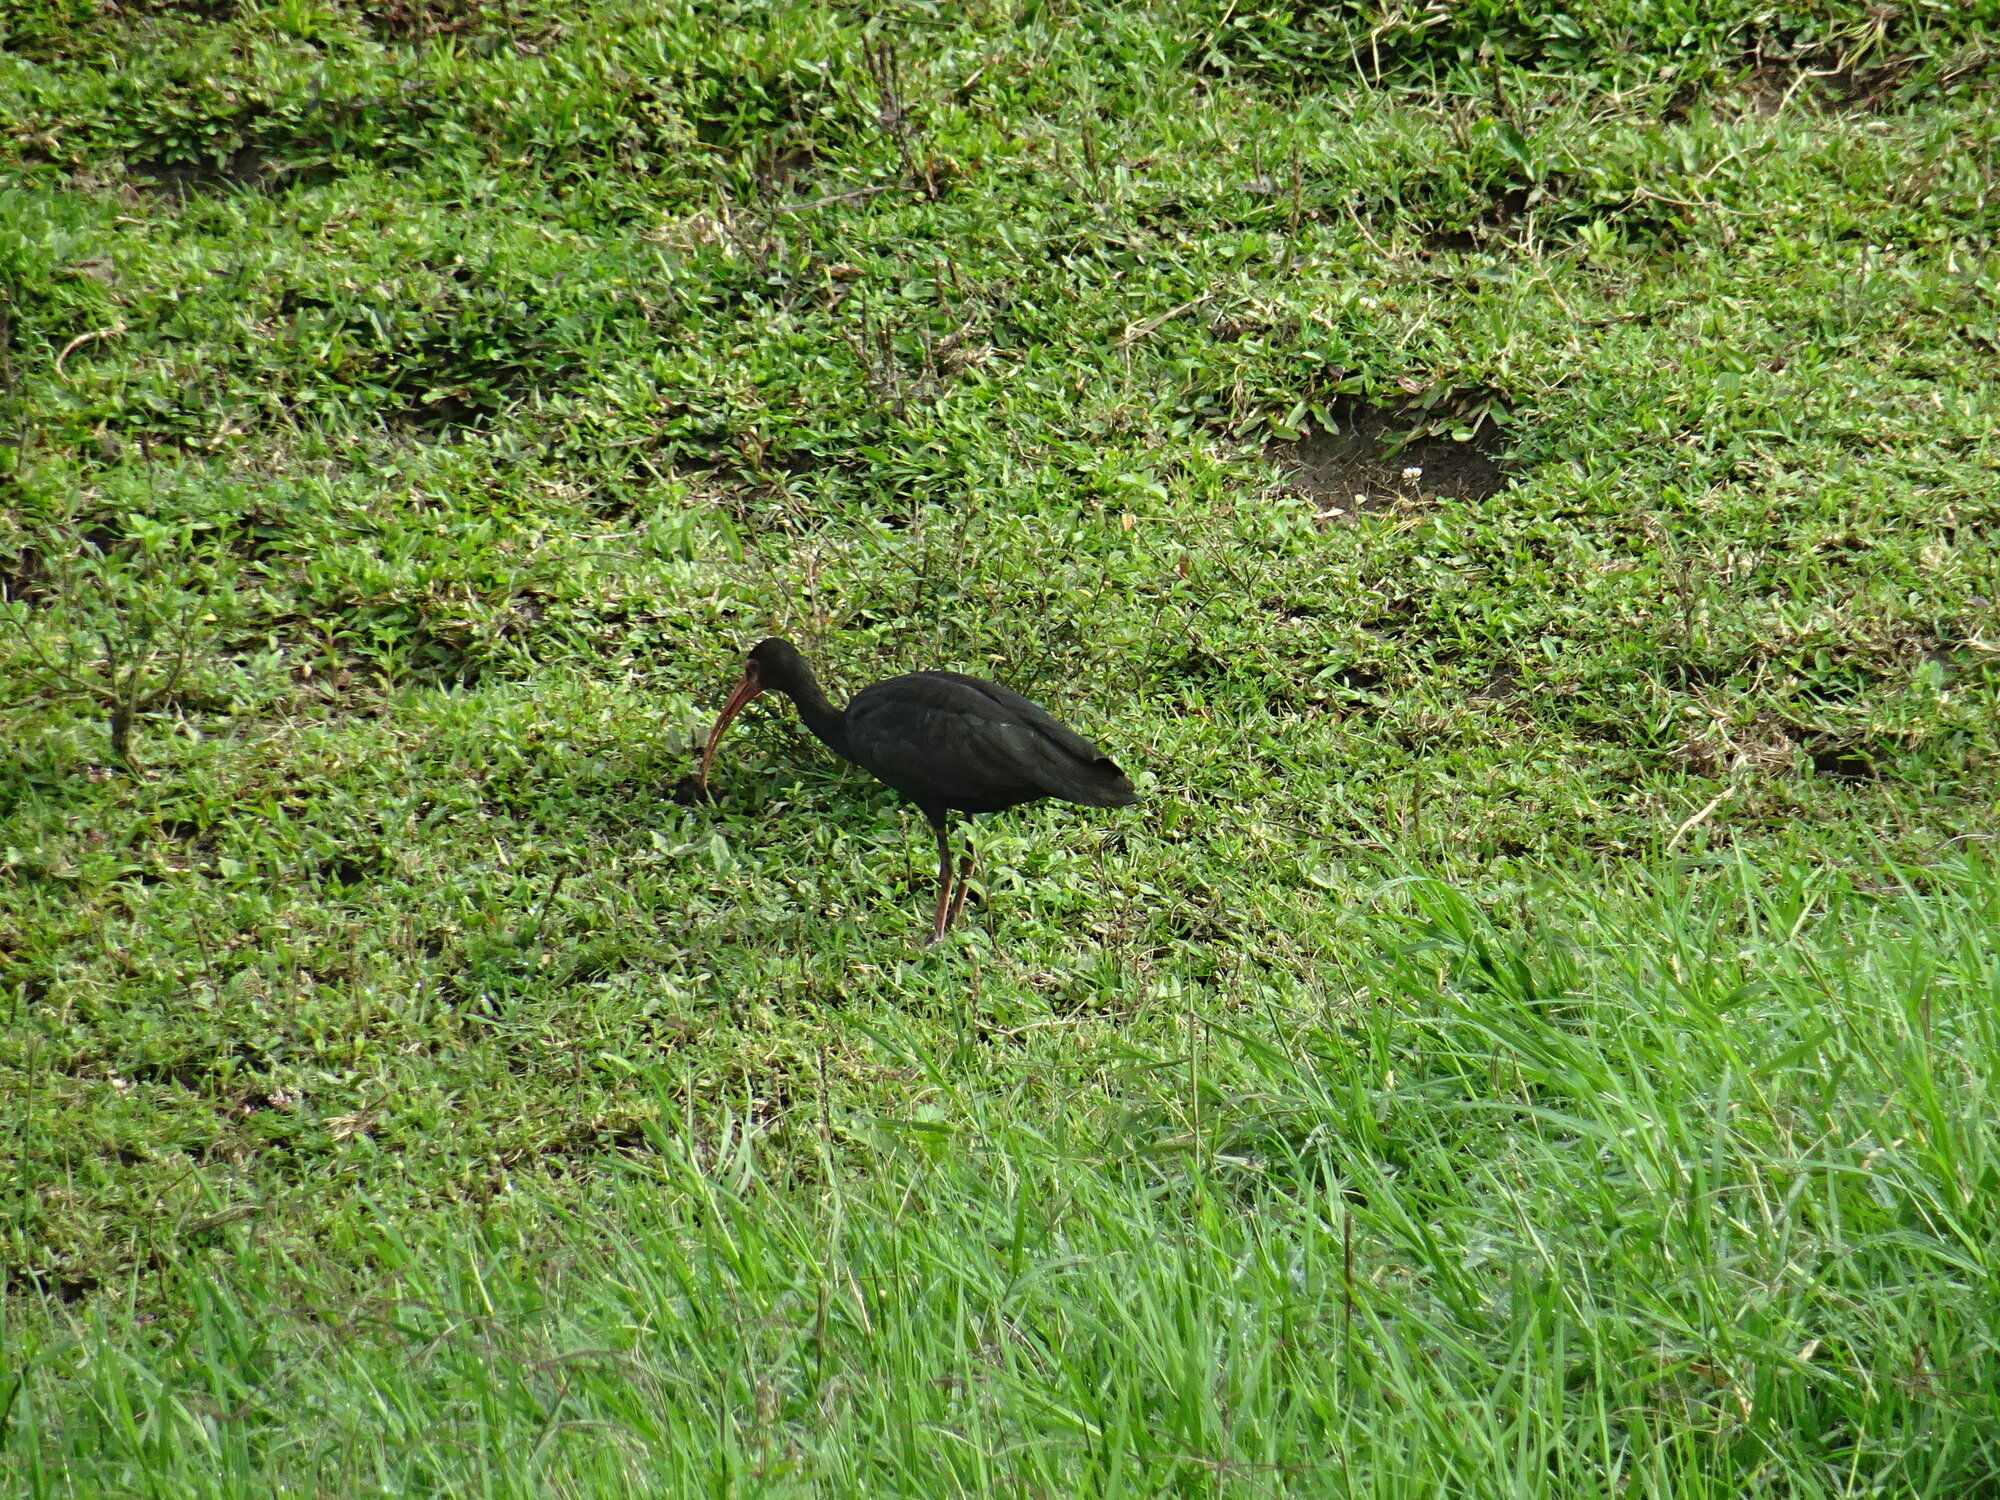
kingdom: Animalia
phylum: Chordata
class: Aves
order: Pelecaniformes
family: Threskiornithidae
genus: Phimosus
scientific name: Phimosus infuscatus
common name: Bare-faced ibis
